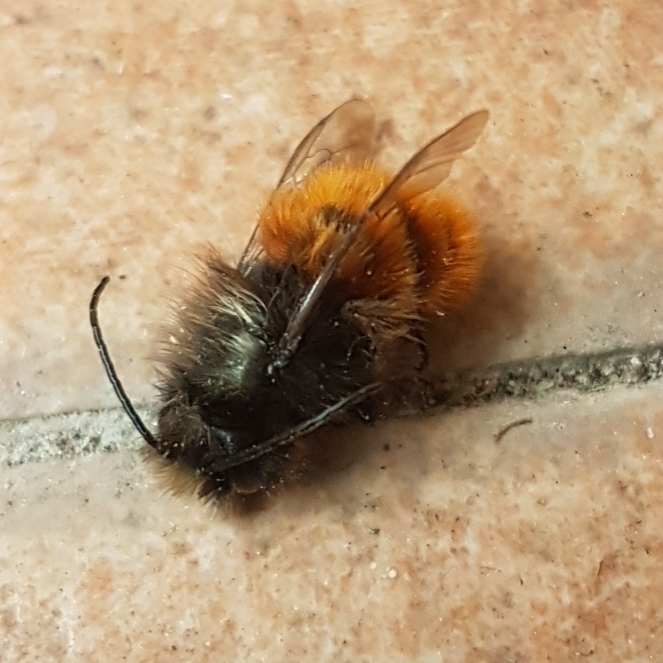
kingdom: Animalia
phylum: Arthropoda
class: Insecta
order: Hymenoptera
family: Megachilidae
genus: Osmia
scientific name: Osmia cornuta
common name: Mason bee
